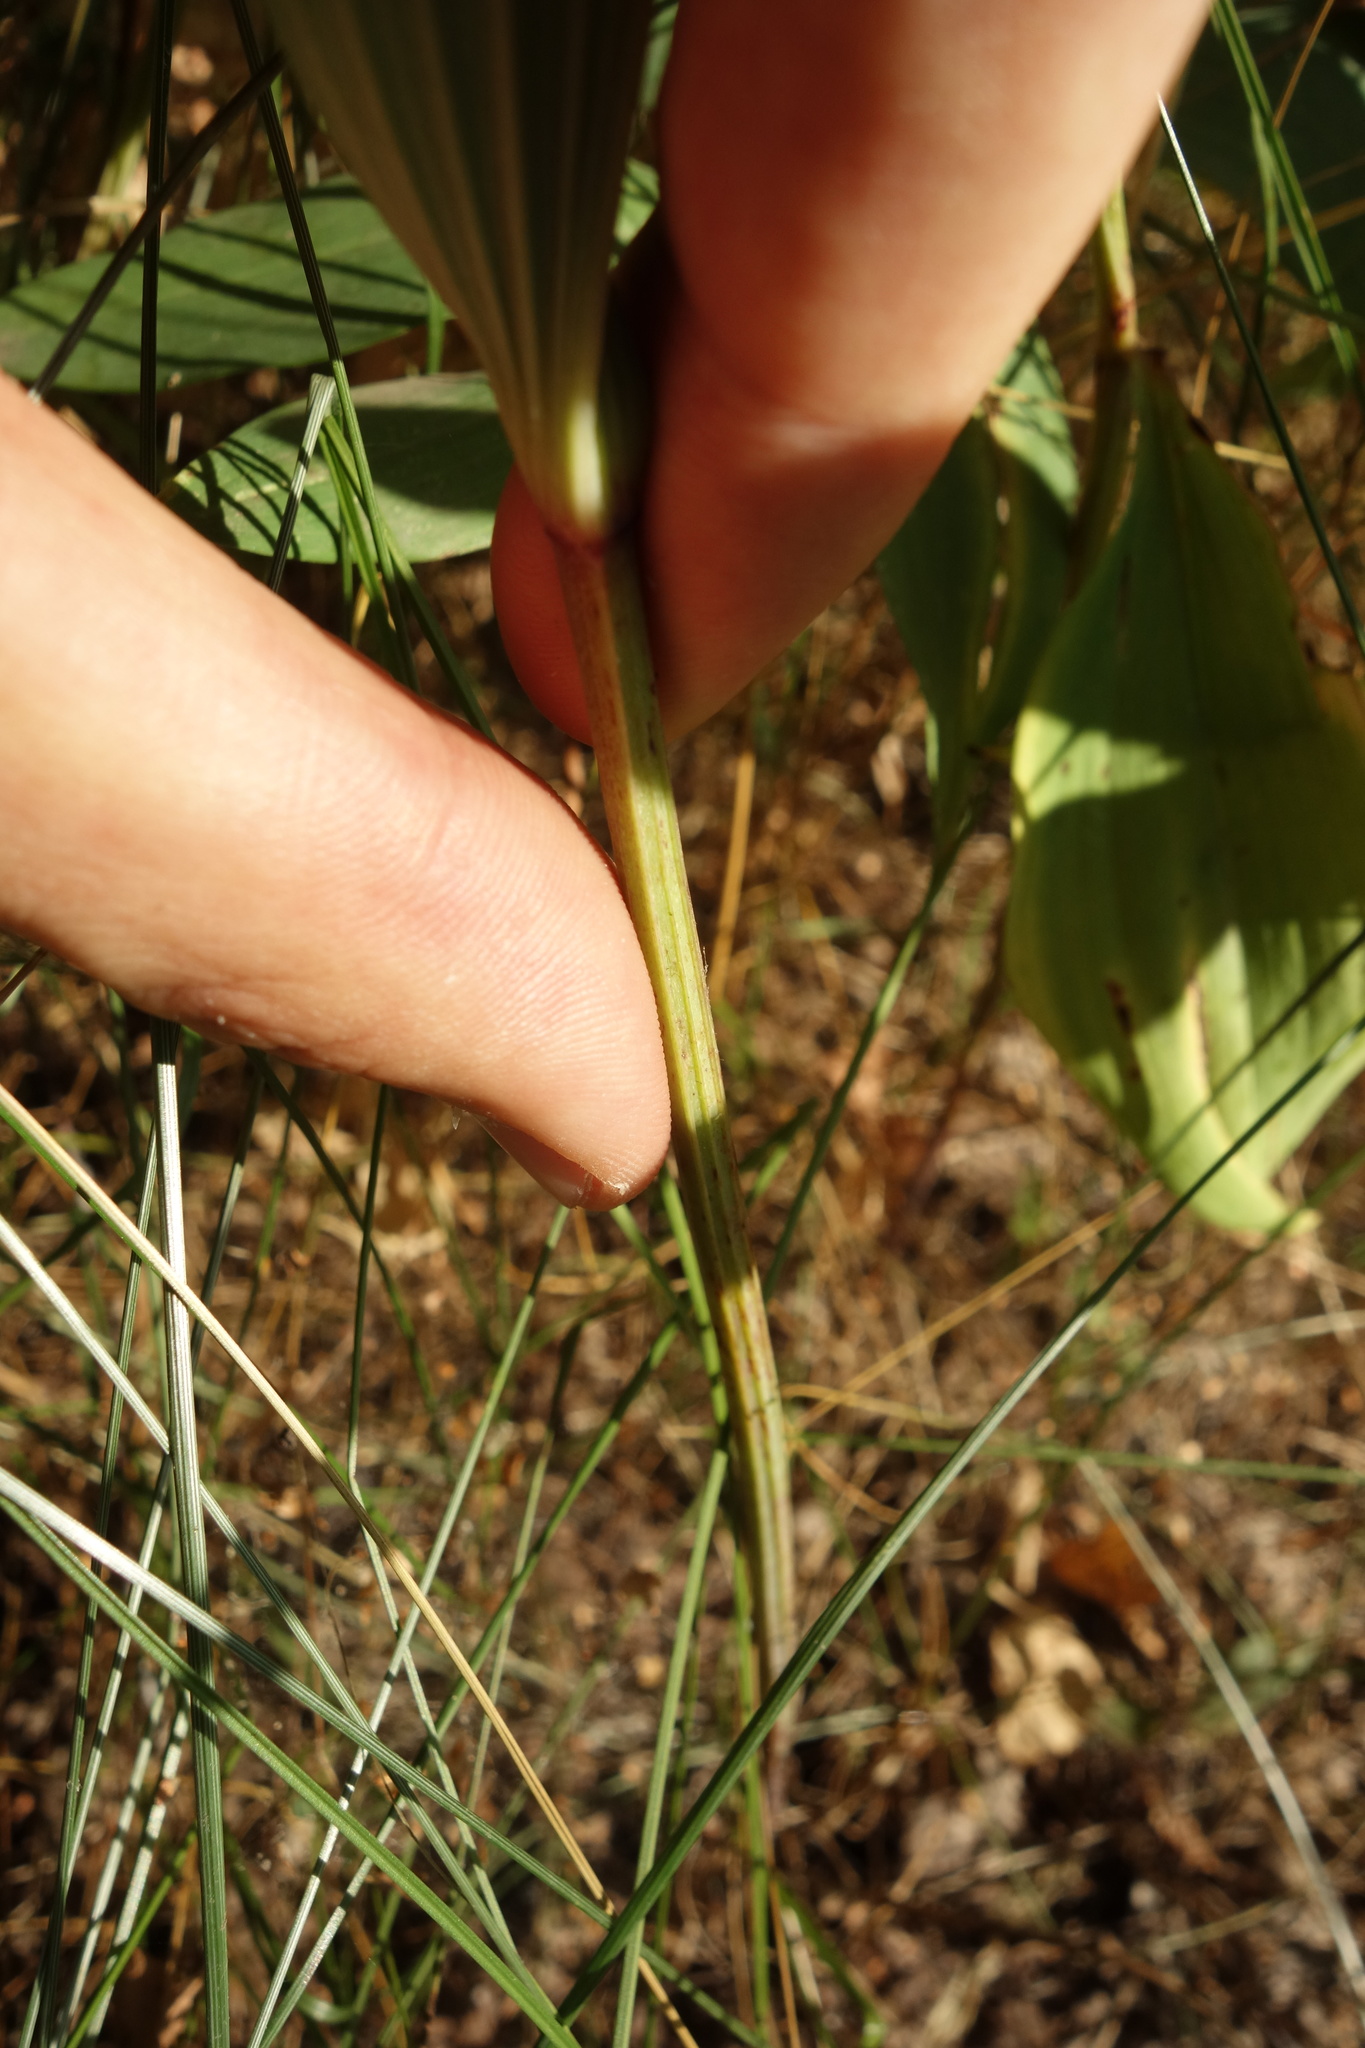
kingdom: Plantae
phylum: Tracheophyta
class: Liliopsida
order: Asparagales
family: Asparagaceae
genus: Polygonatum
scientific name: Polygonatum odoratum
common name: Angular solomon's-seal
